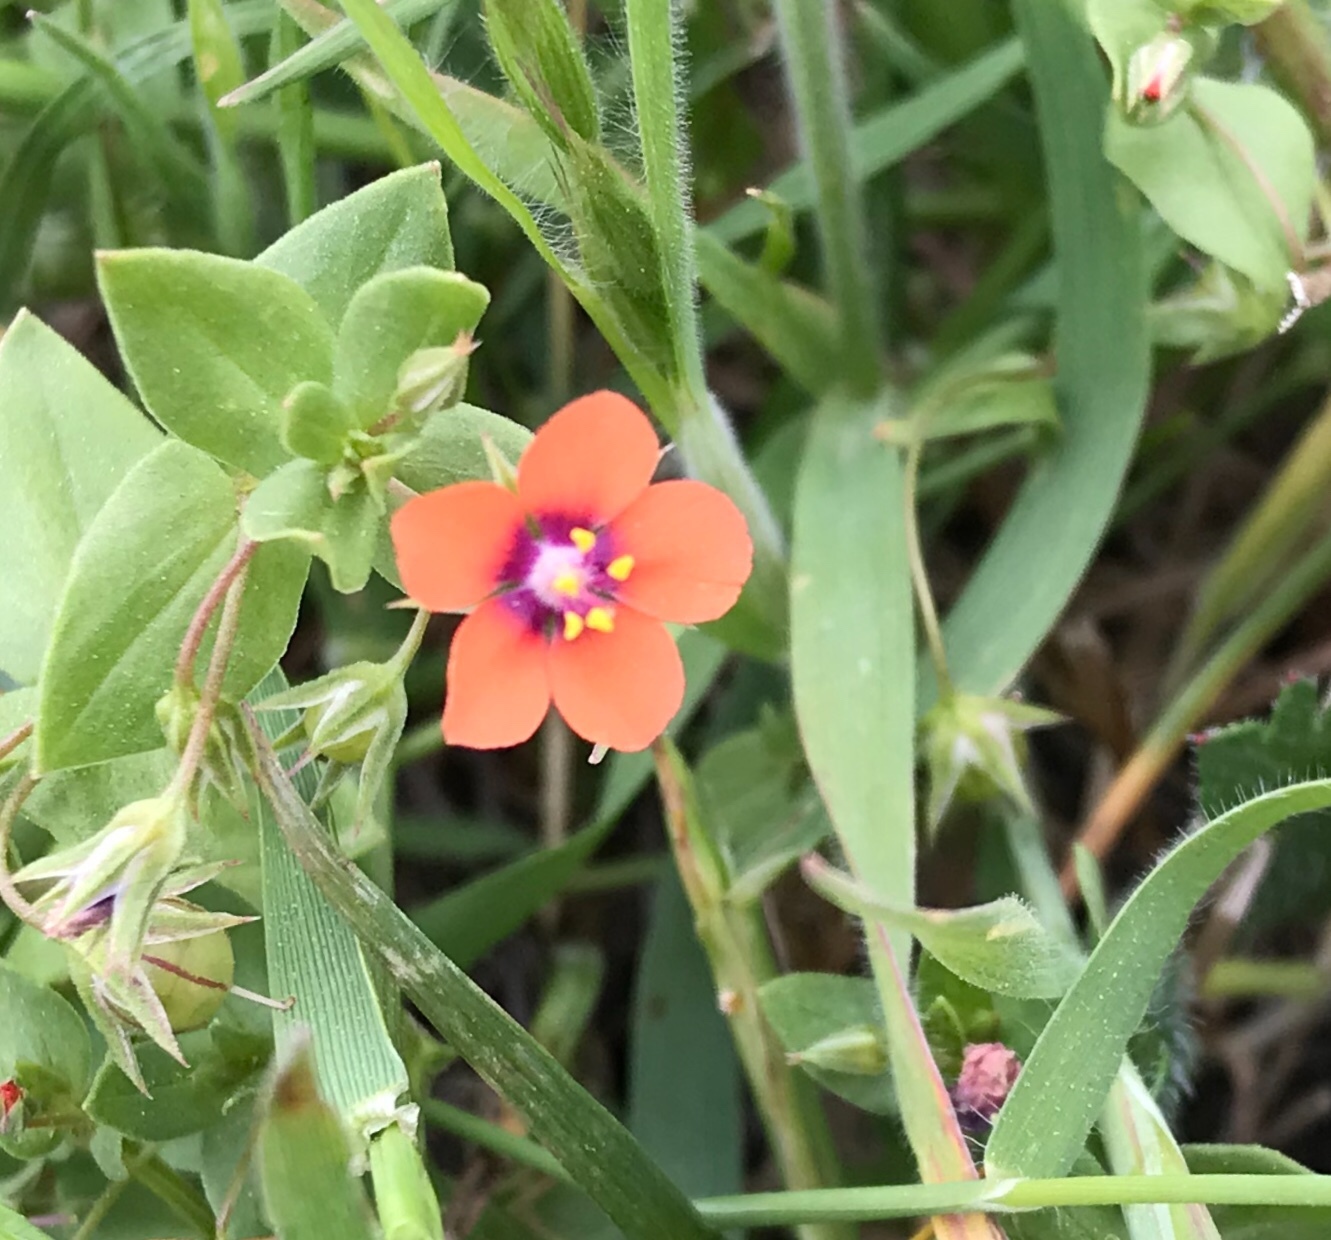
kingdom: Plantae
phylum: Tracheophyta
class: Magnoliopsida
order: Ericales
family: Primulaceae
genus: Lysimachia
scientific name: Lysimachia arvensis
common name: Scarlet pimpernel
